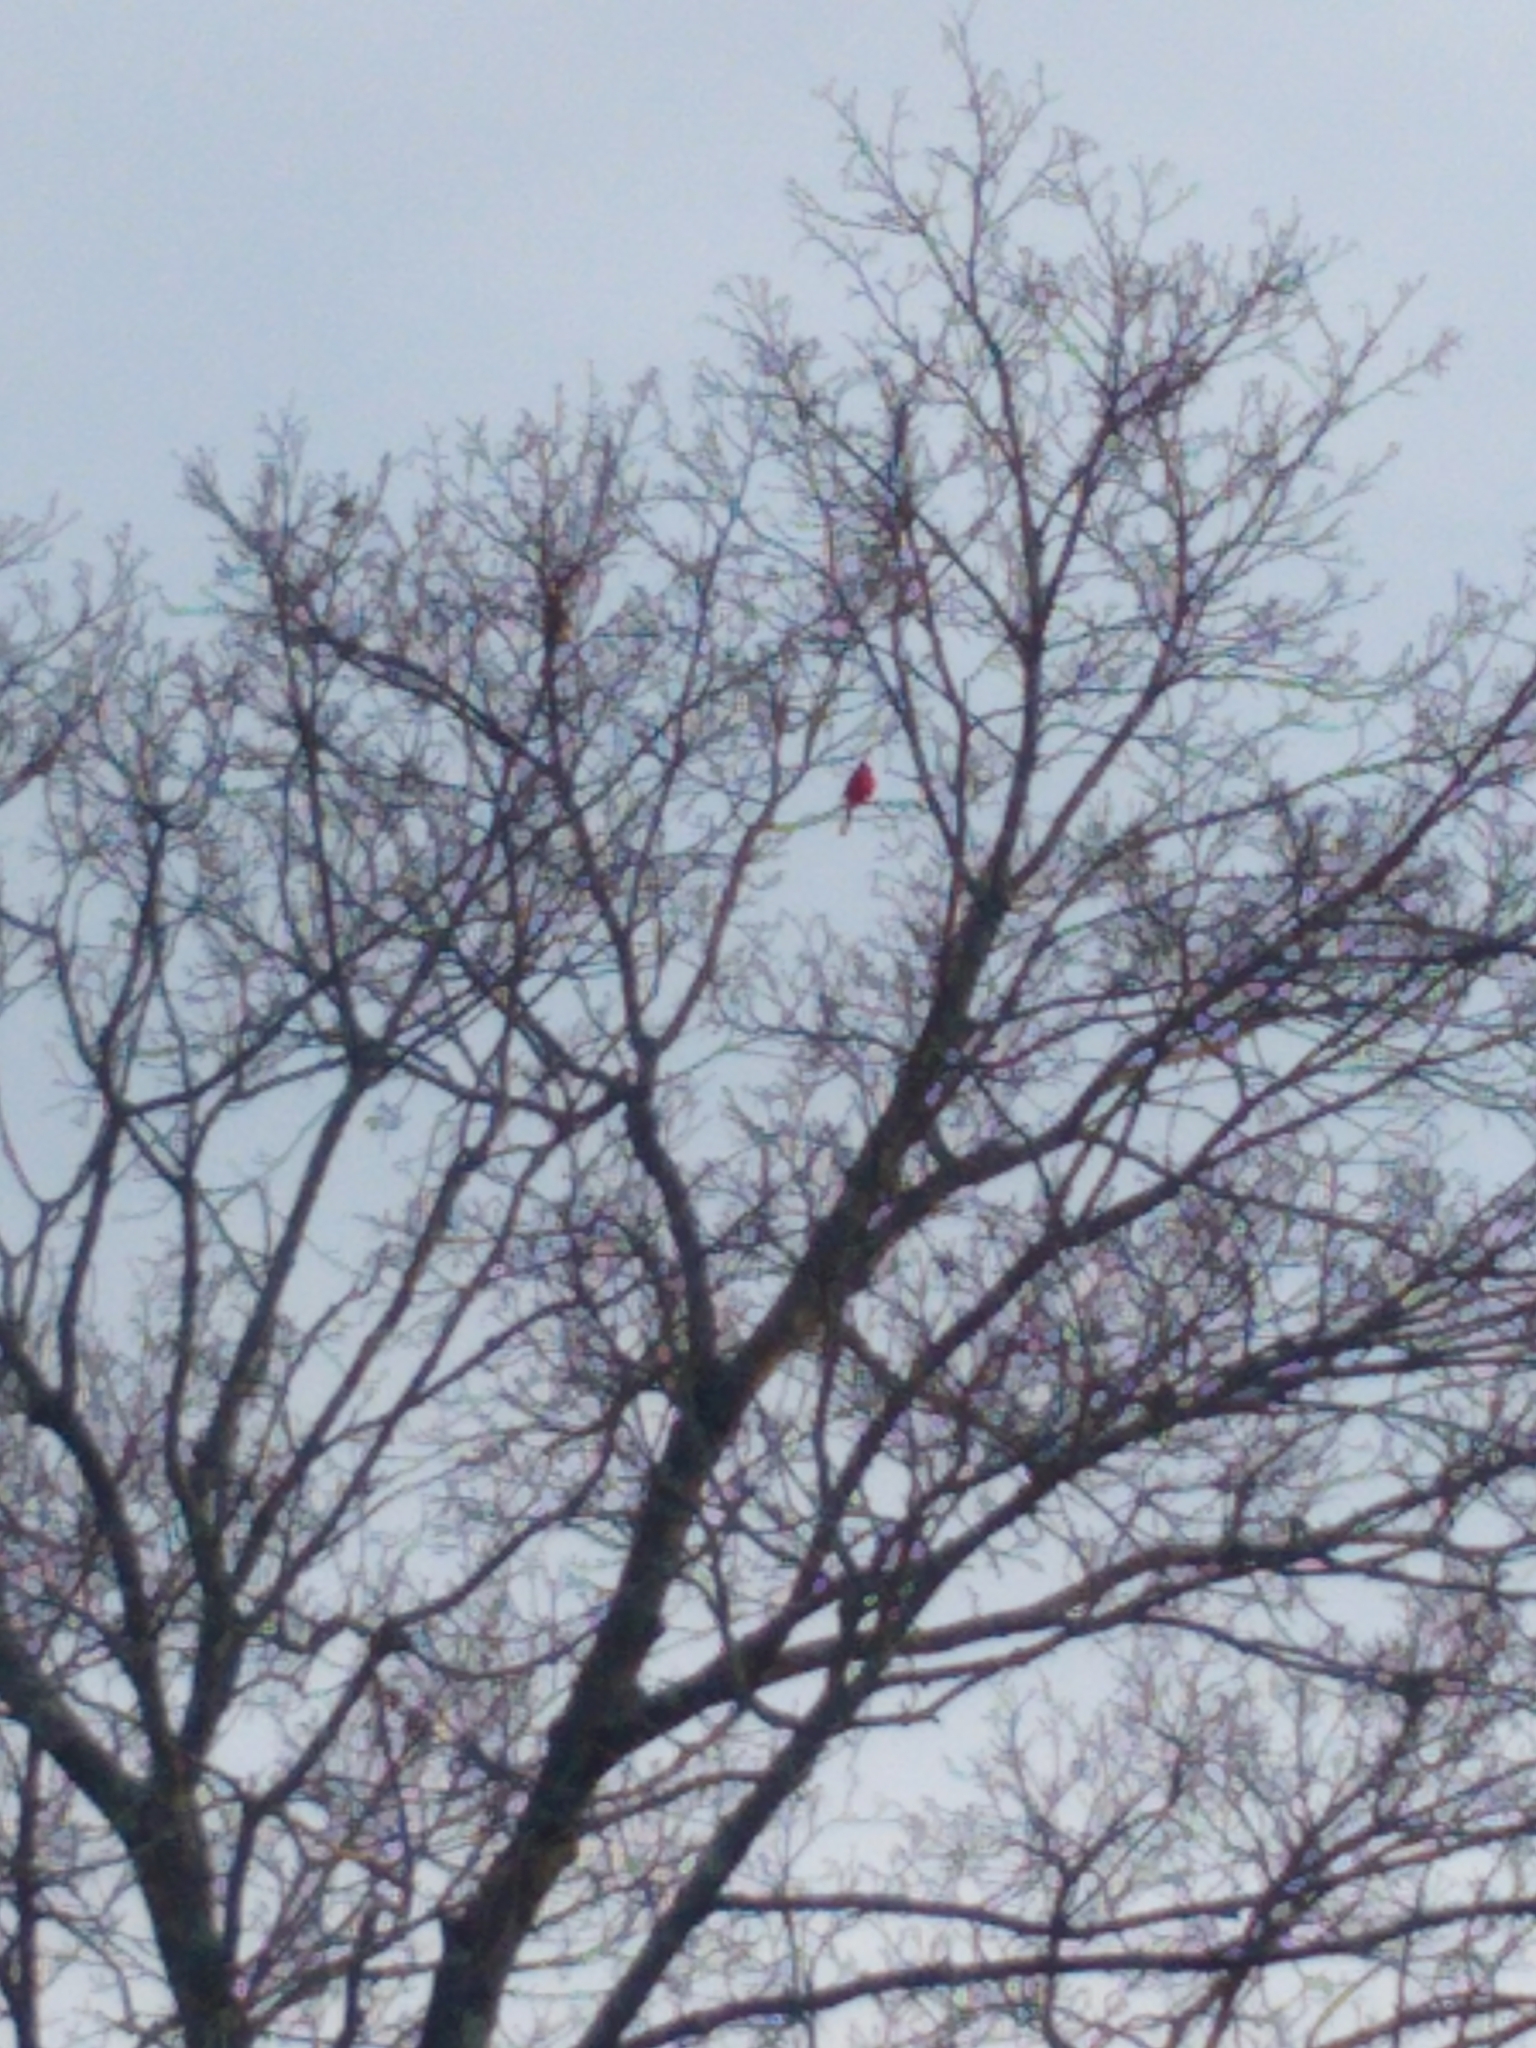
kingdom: Animalia
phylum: Chordata
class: Aves
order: Passeriformes
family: Cardinalidae
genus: Cardinalis
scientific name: Cardinalis cardinalis
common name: Northern cardinal
